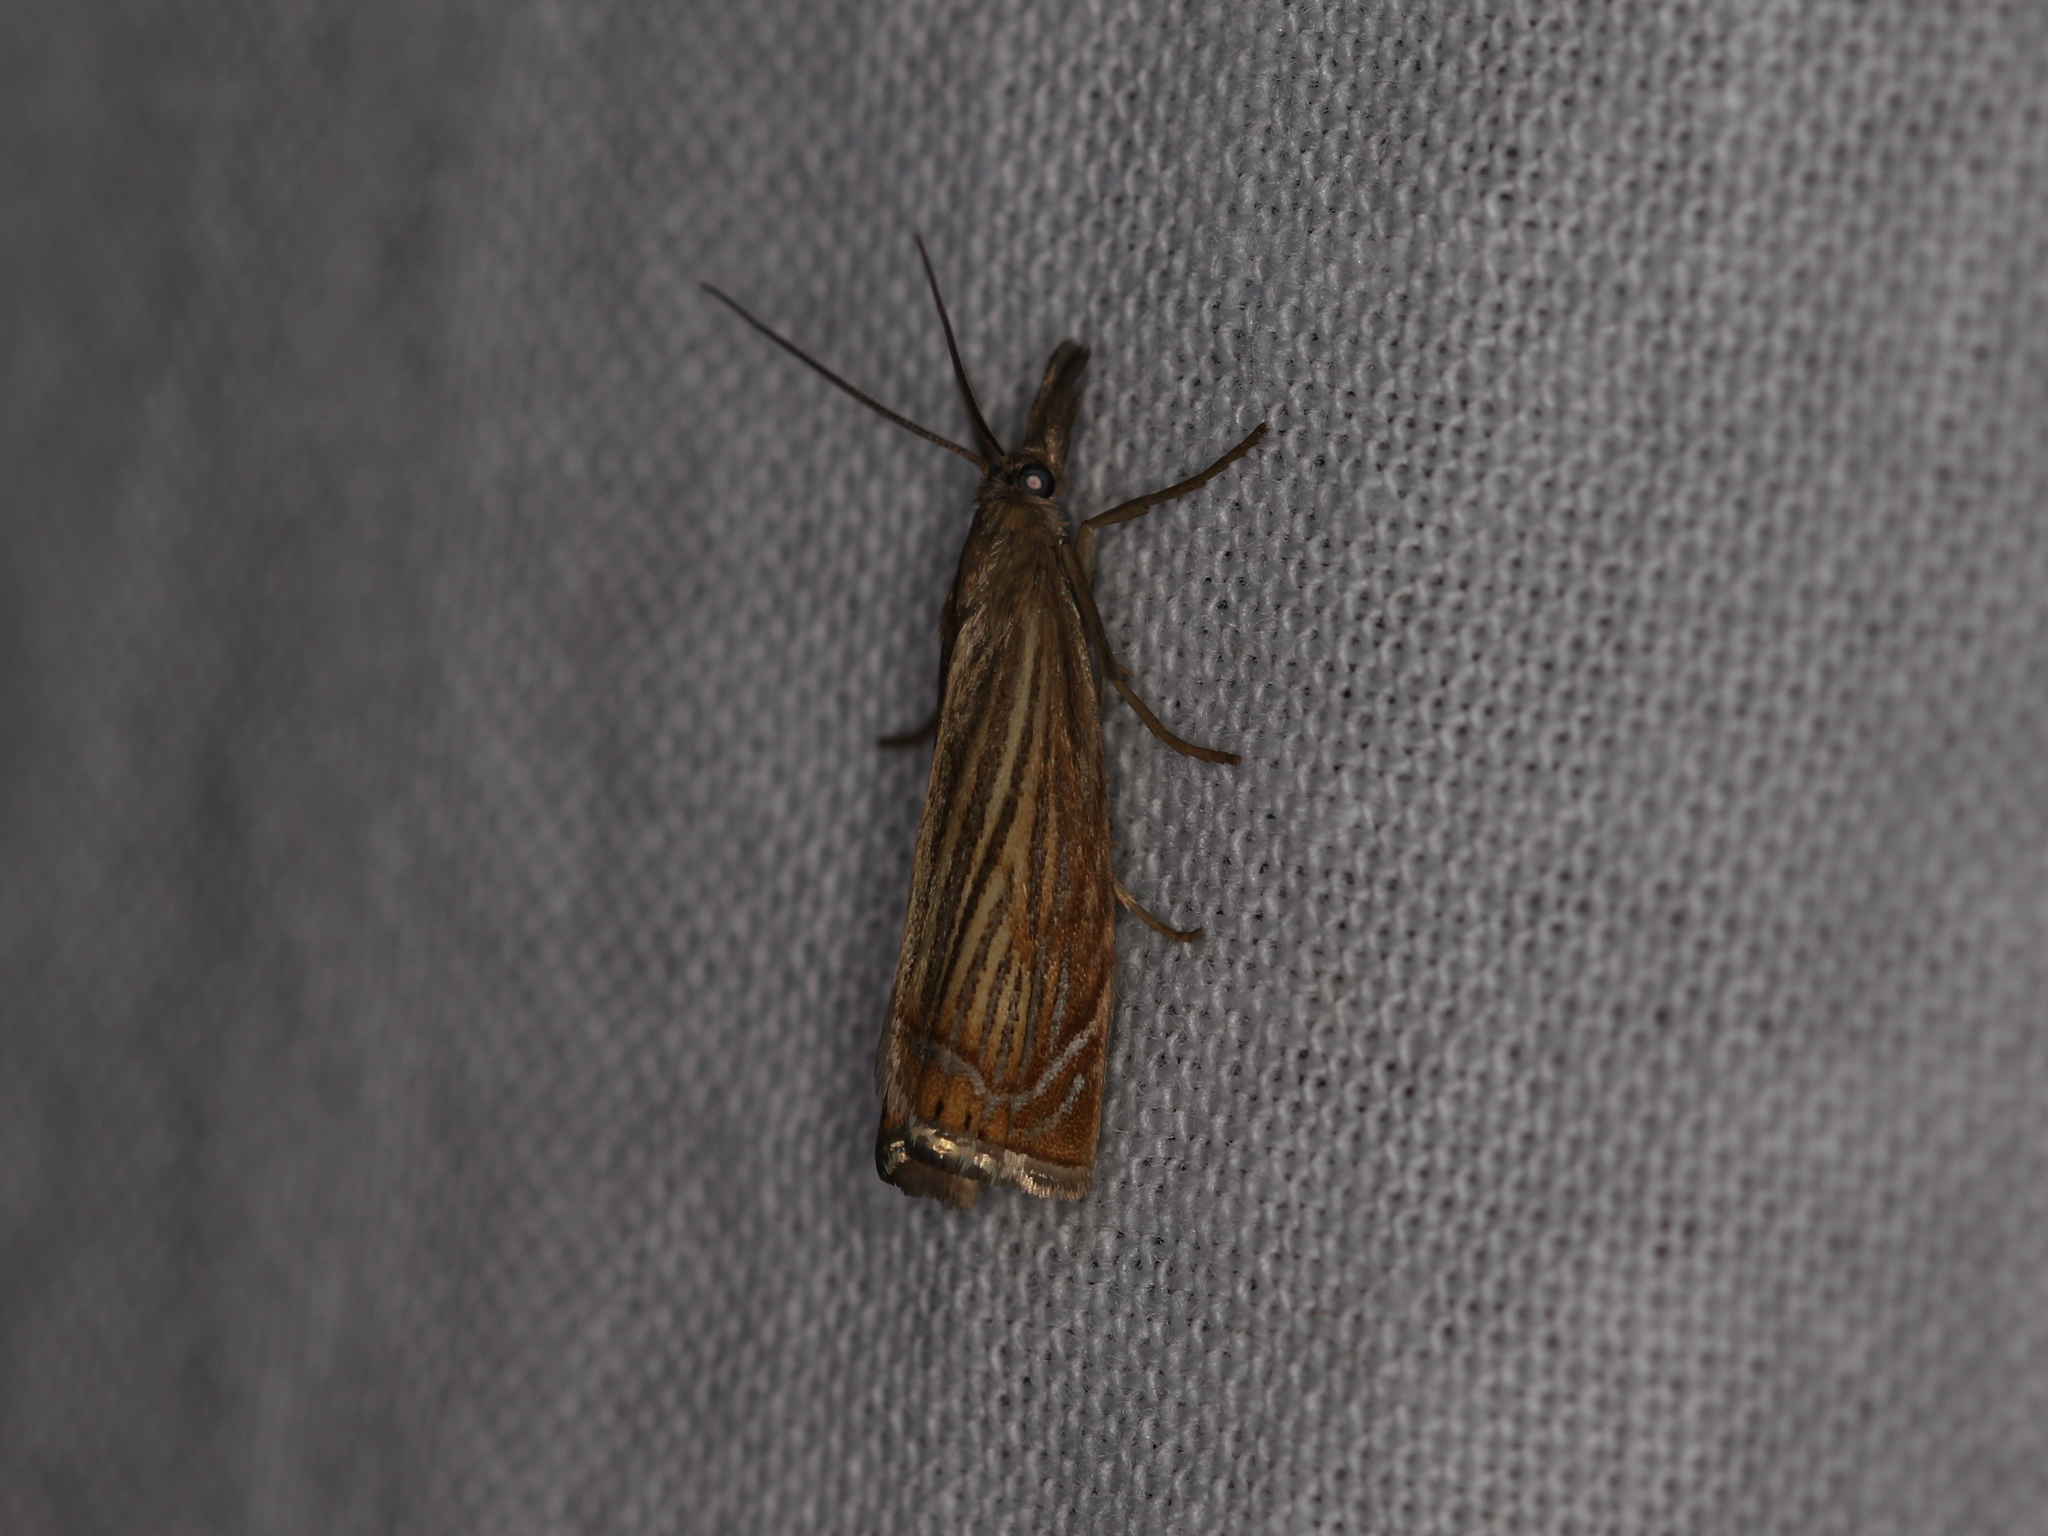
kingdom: Animalia
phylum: Arthropoda
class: Insecta
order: Lepidoptera
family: Crambidae
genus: Chrysoteuchia
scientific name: Chrysoteuchia culmella
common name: Garden grass-veneer
